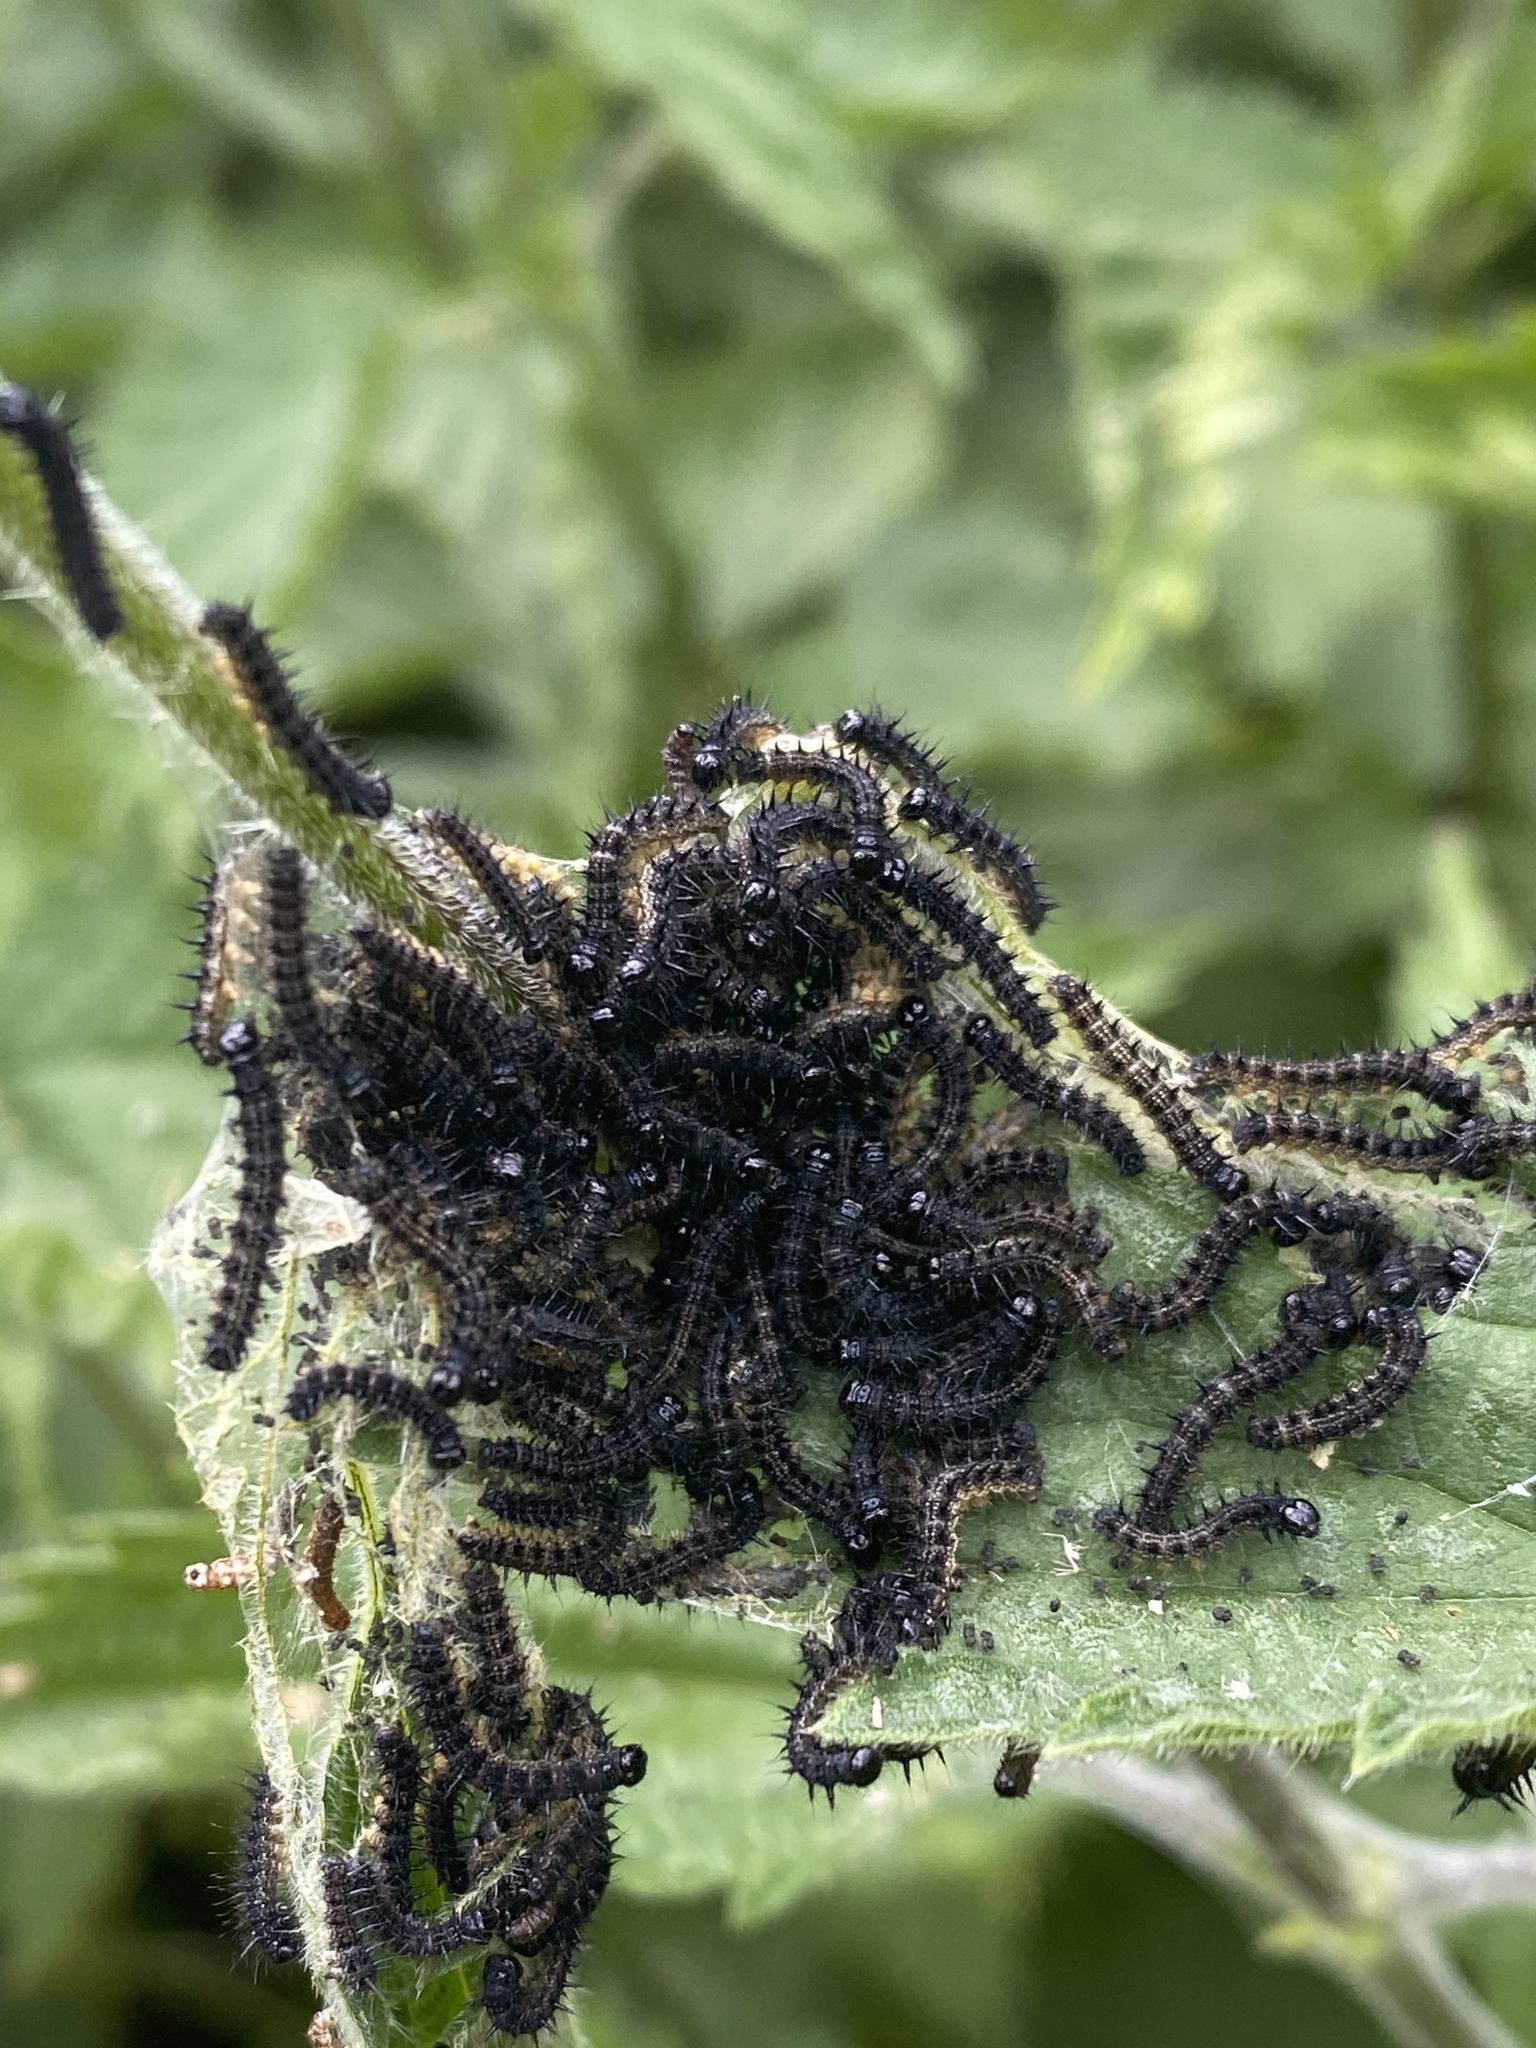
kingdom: Animalia
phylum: Arthropoda
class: Insecta
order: Lepidoptera
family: Nymphalidae
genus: Aglais
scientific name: Aglais urticae
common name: Small tortoiseshell
